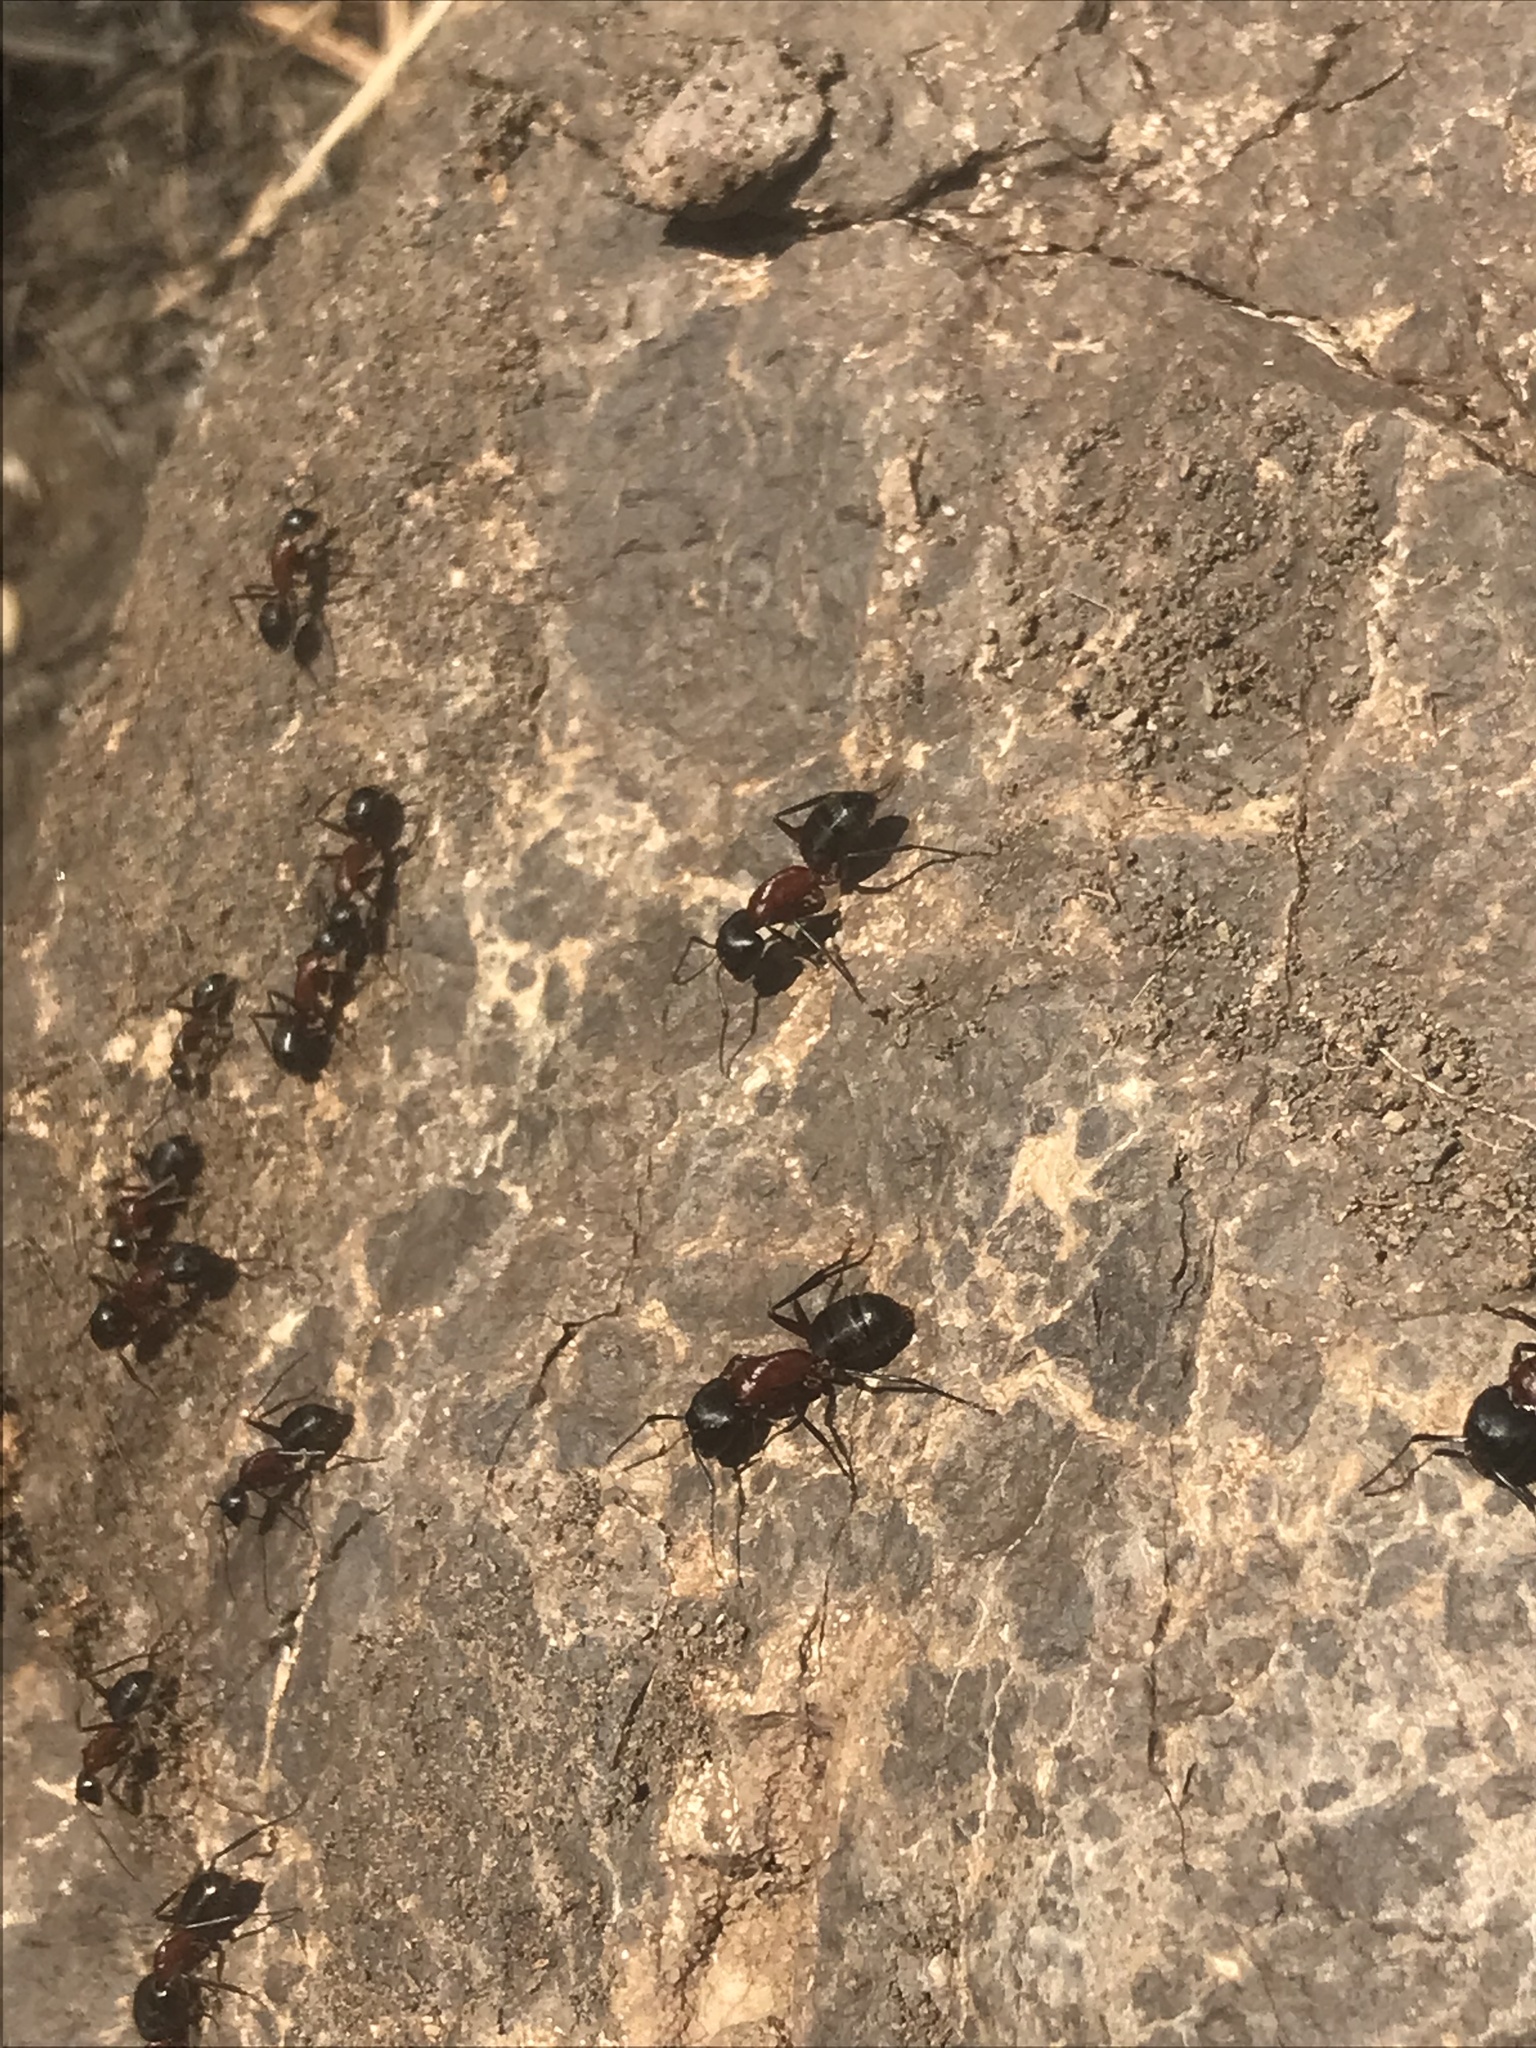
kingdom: Animalia
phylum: Arthropoda
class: Insecta
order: Hymenoptera
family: Formicidae
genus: Camponotus
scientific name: Camponotus vicinus
